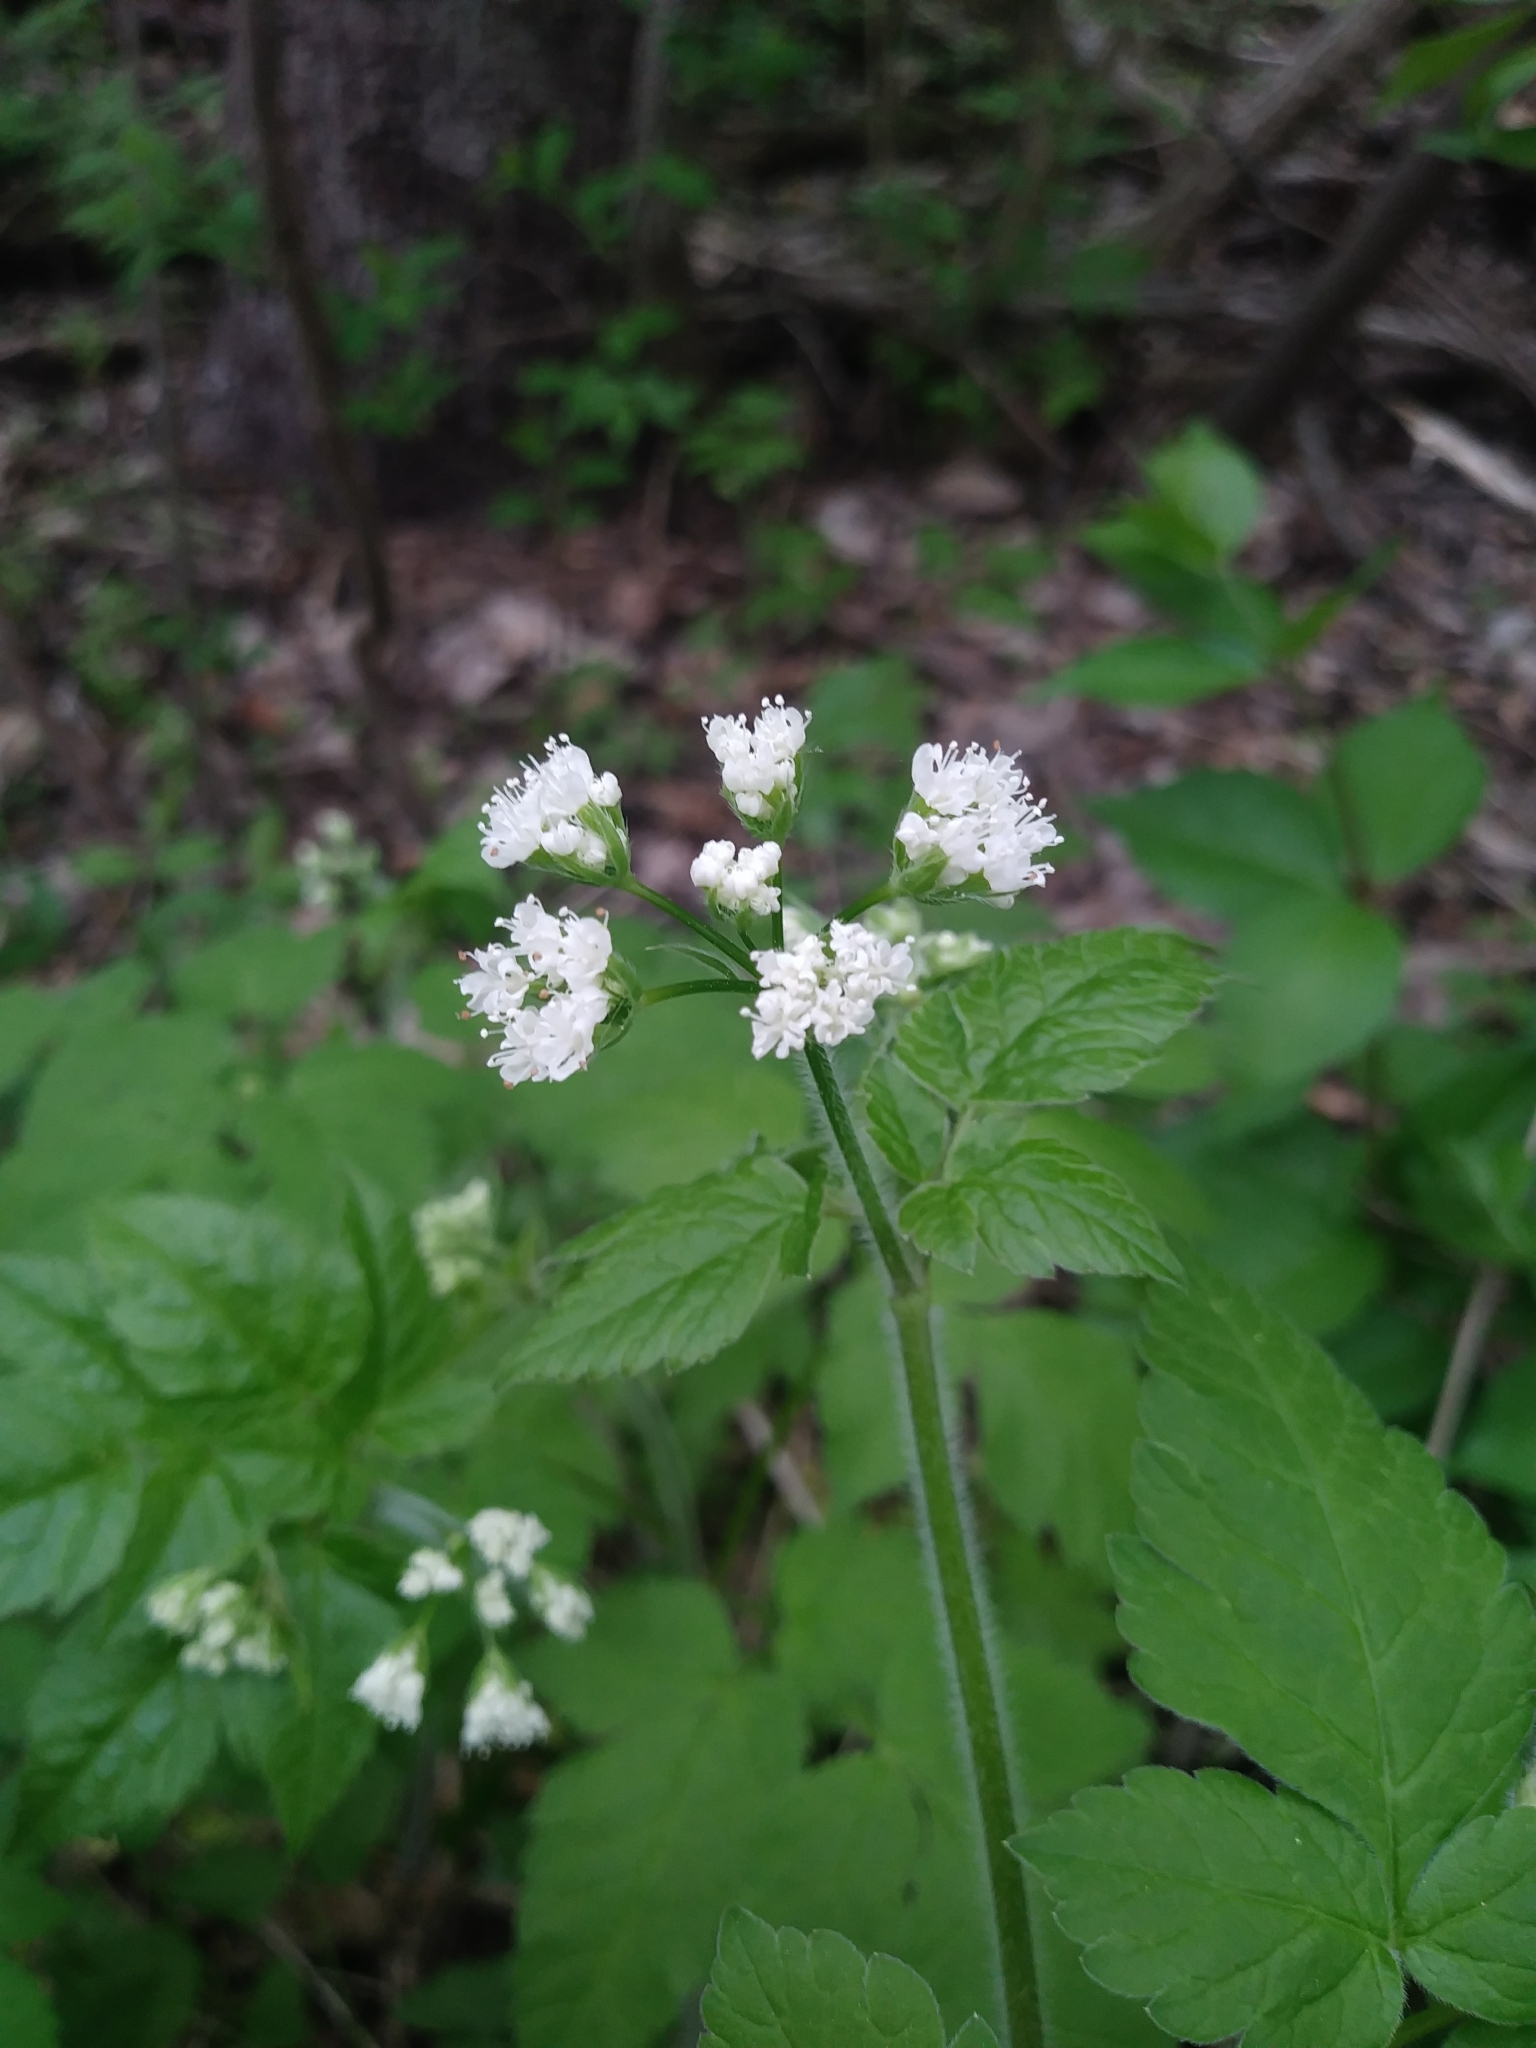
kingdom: Plantae
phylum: Tracheophyta
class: Magnoliopsida
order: Apiales
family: Apiaceae
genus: Osmorhiza
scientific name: Osmorhiza longistylis
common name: Smooth sweet cicely
